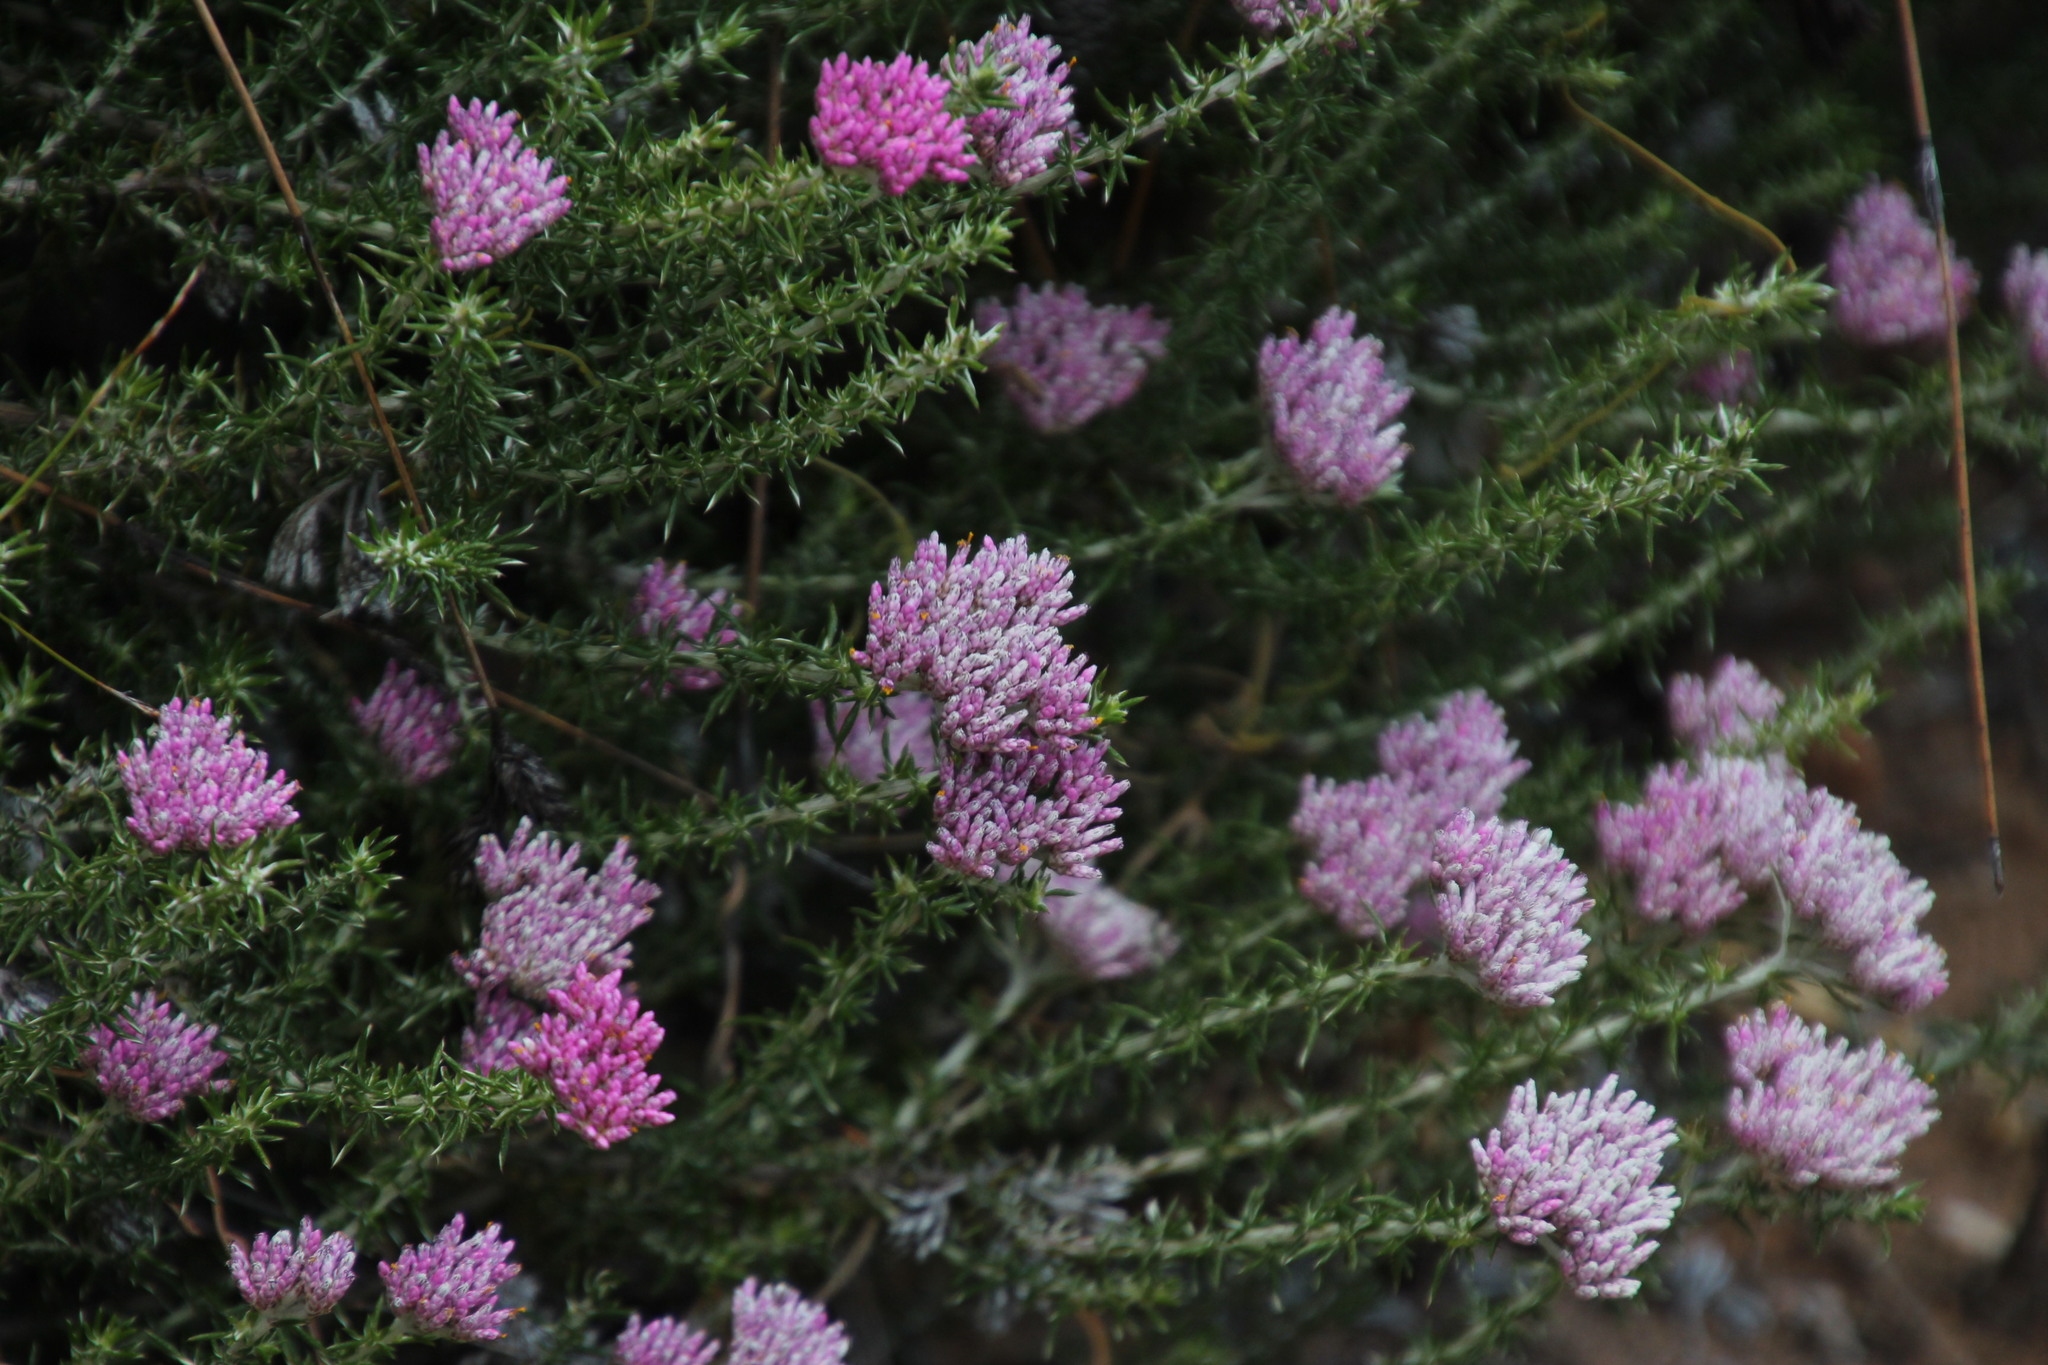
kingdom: Plantae
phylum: Tracheophyta
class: Magnoliopsida
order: Asterales
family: Asteraceae
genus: Metalasia
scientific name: Metalasia fastigiata
